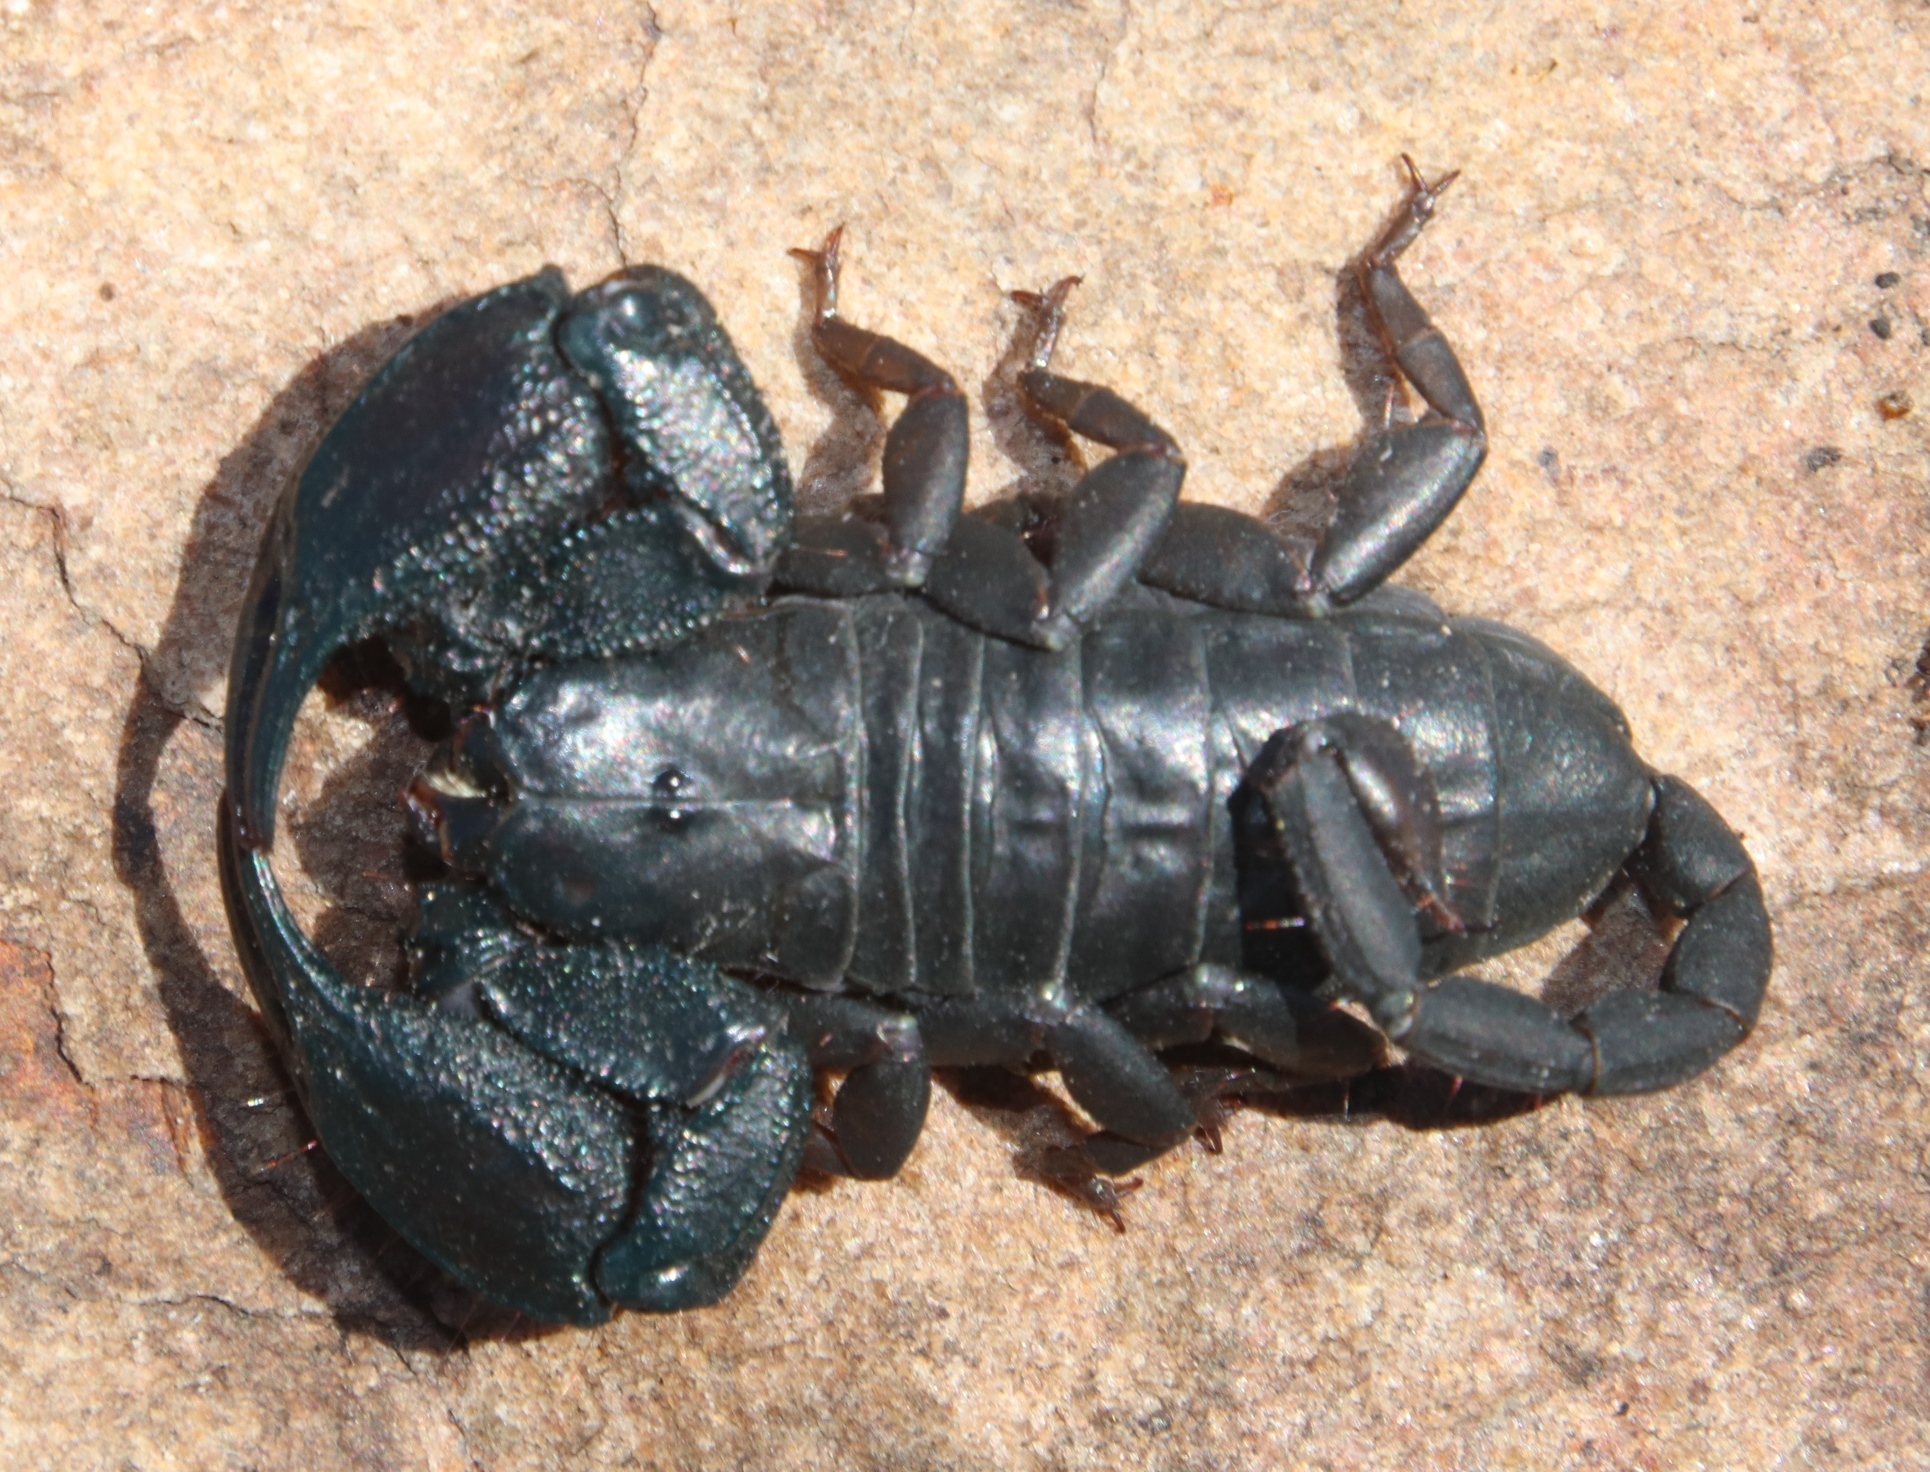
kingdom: Animalia
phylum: Arthropoda
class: Arachnida
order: Scorpiones
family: Hormuridae
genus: Opisthacanthus
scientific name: Opisthacanthus capensis
